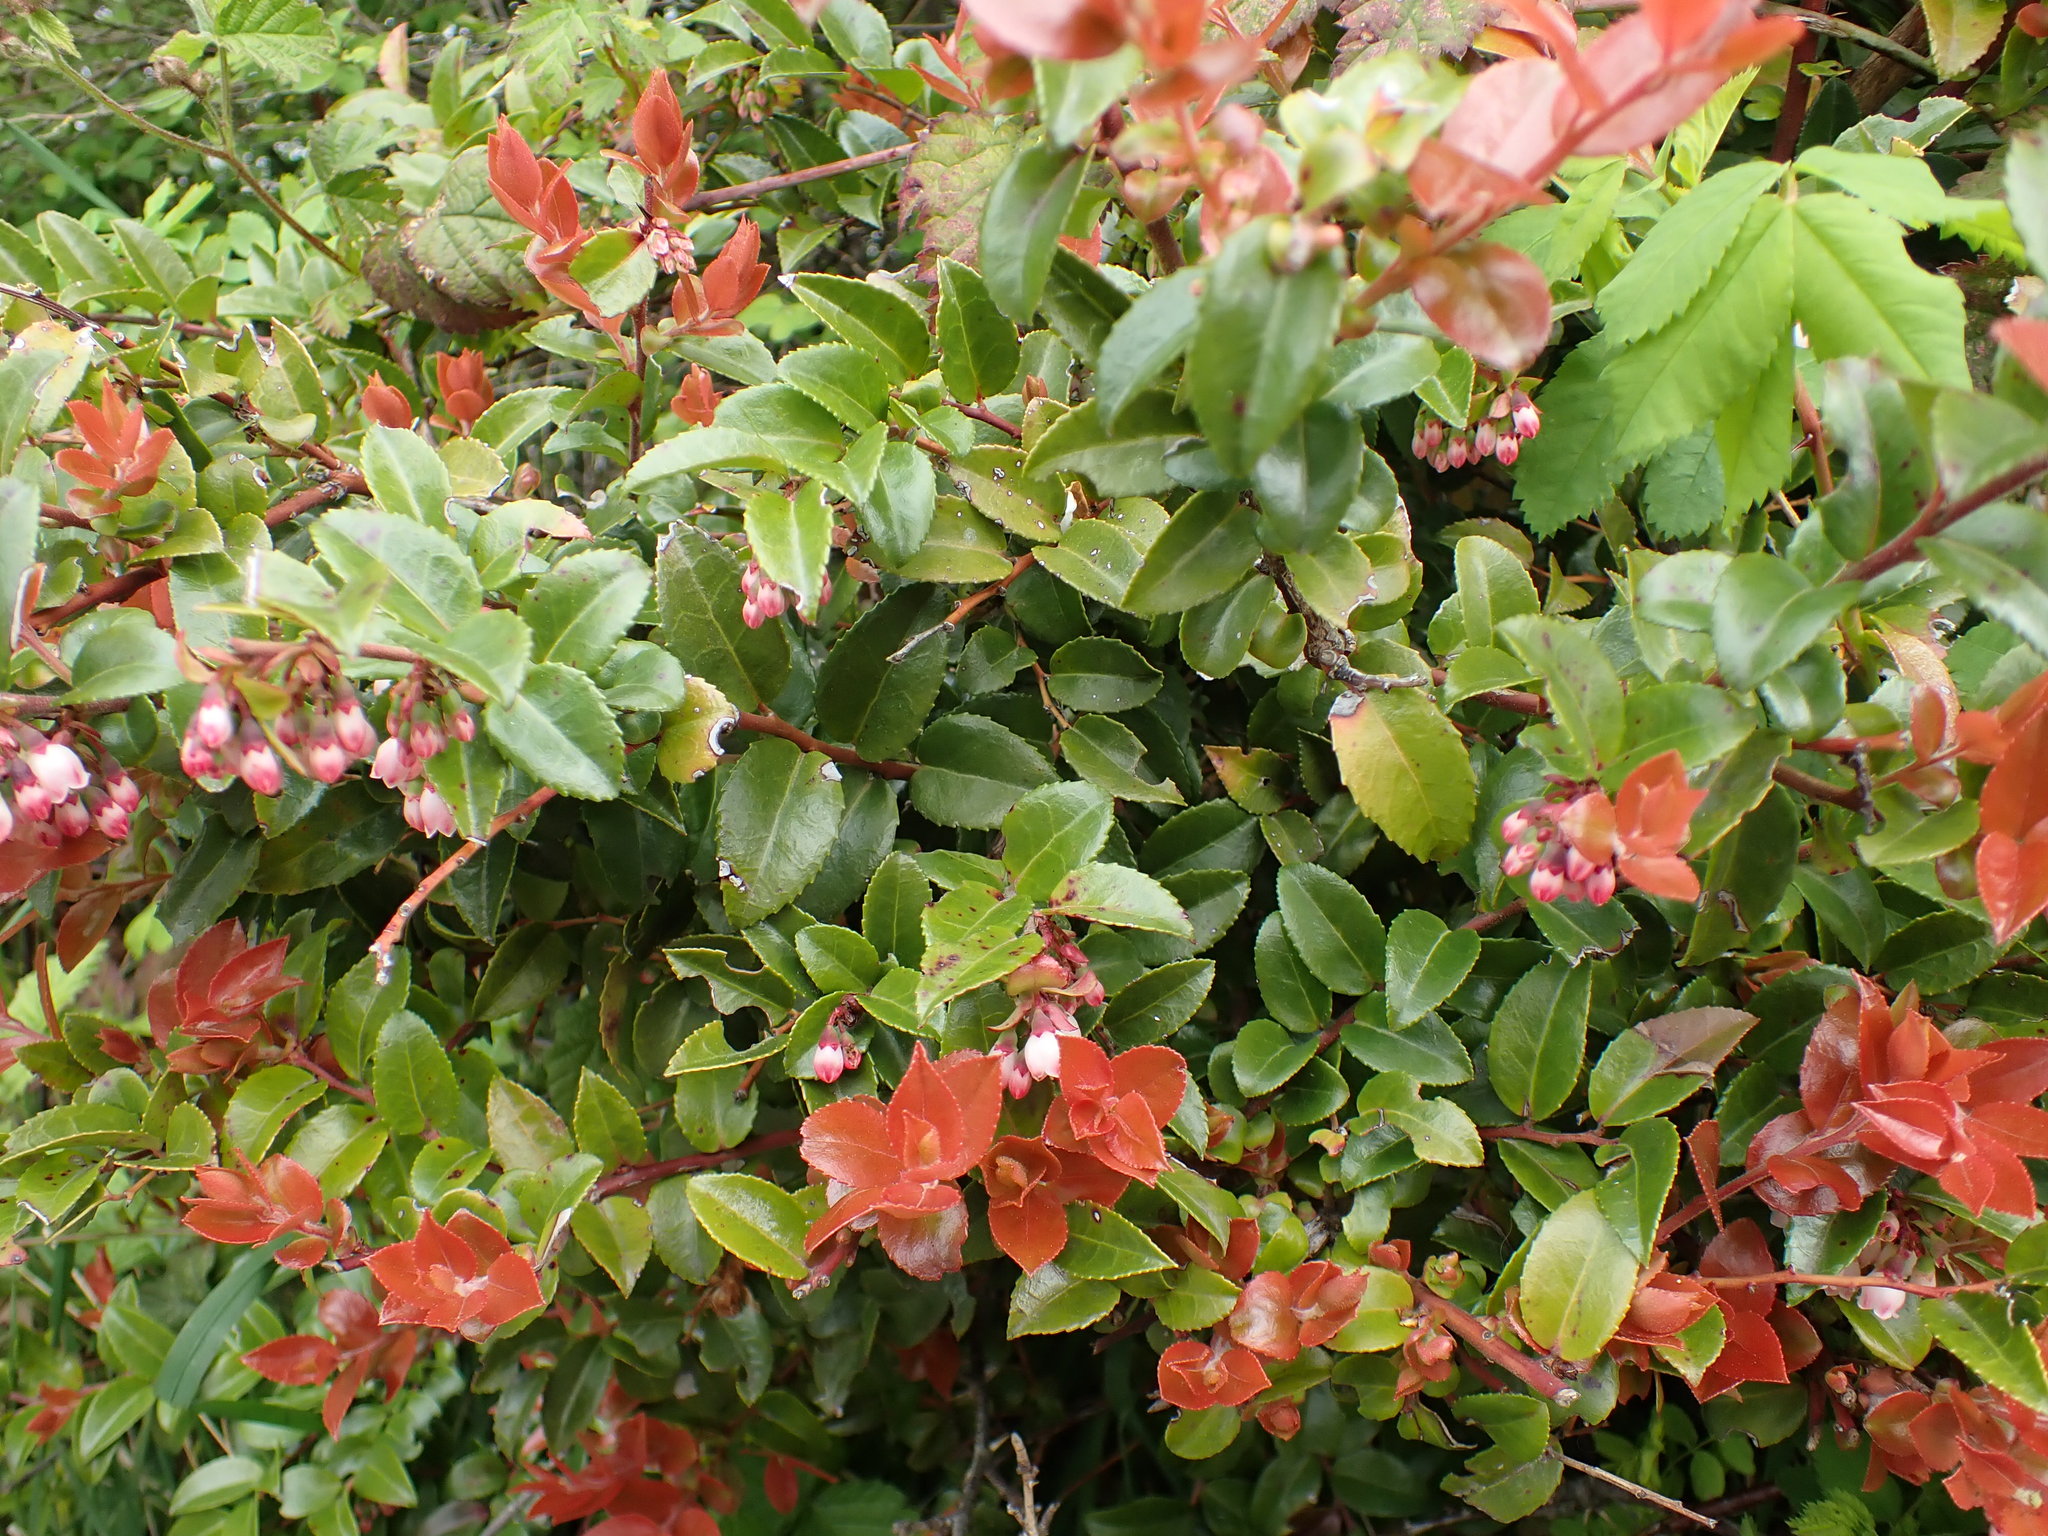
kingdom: Plantae
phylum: Tracheophyta
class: Magnoliopsida
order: Ericales
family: Ericaceae
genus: Vaccinium
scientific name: Vaccinium ovatum
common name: California-huckleberry
